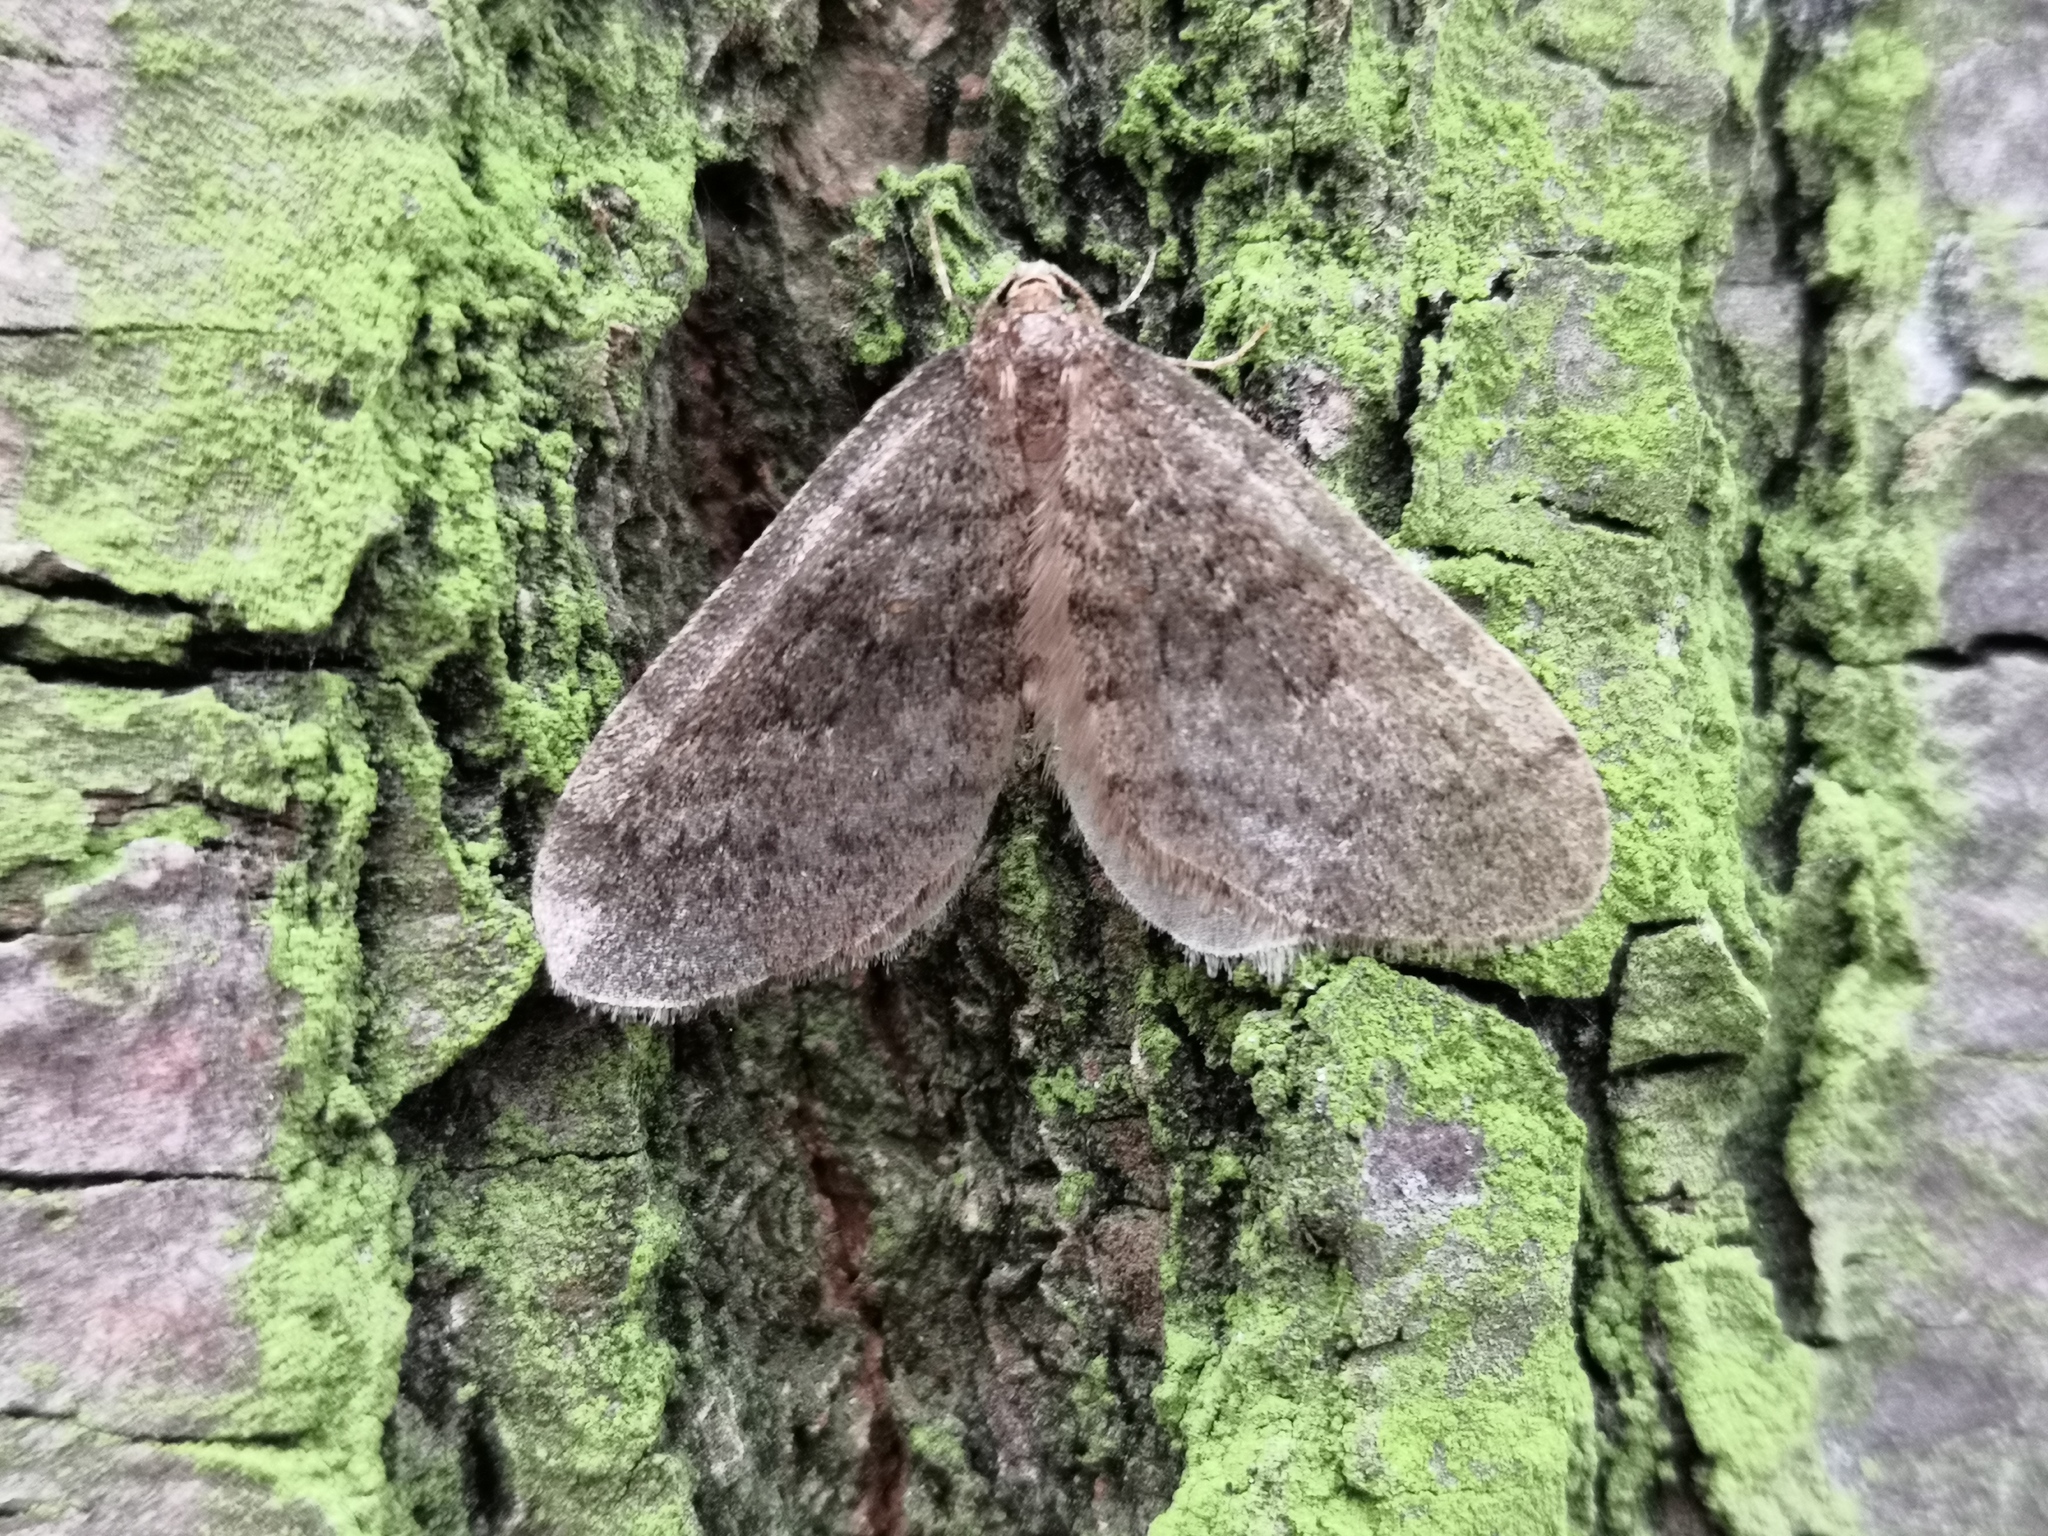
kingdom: Animalia
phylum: Arthropoda
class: Insecta
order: Lepidoptera
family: Geometridae
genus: Operophtera
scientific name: Operophtera brumata
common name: Winter moth
